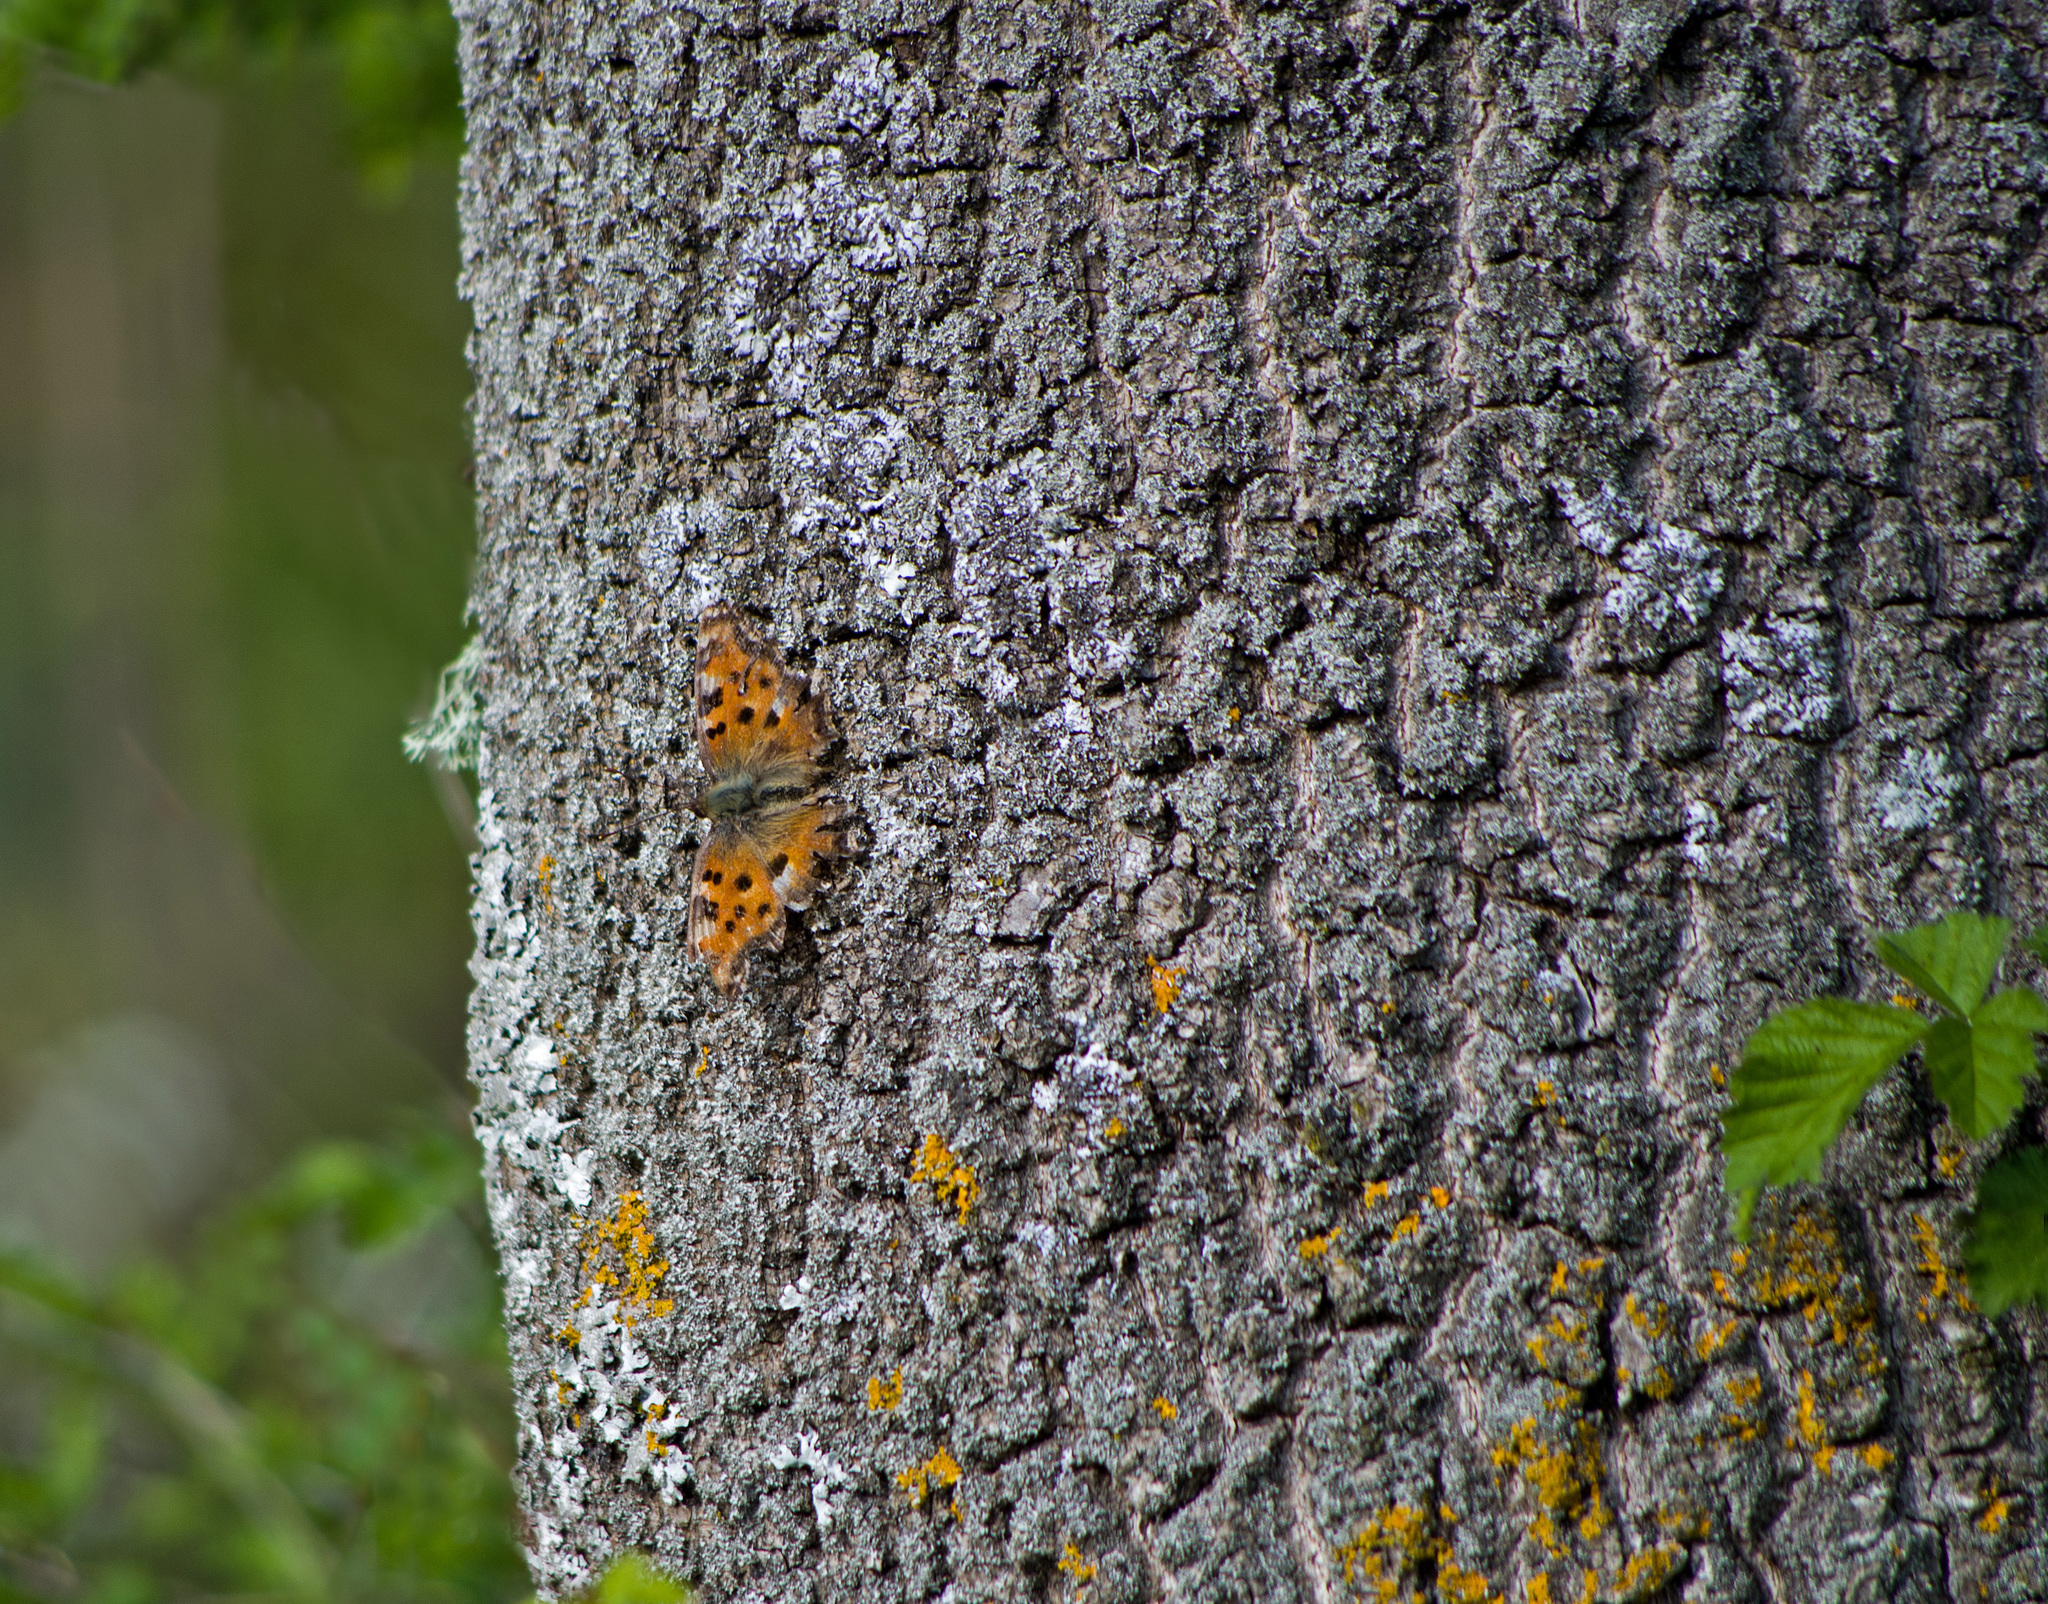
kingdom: Animalia
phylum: Arthropoda
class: Insecta
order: Lepidoptera
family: Nymphalidae
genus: Nymphalis
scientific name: Nymphalis polychloros
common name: Large tortoiseshell
